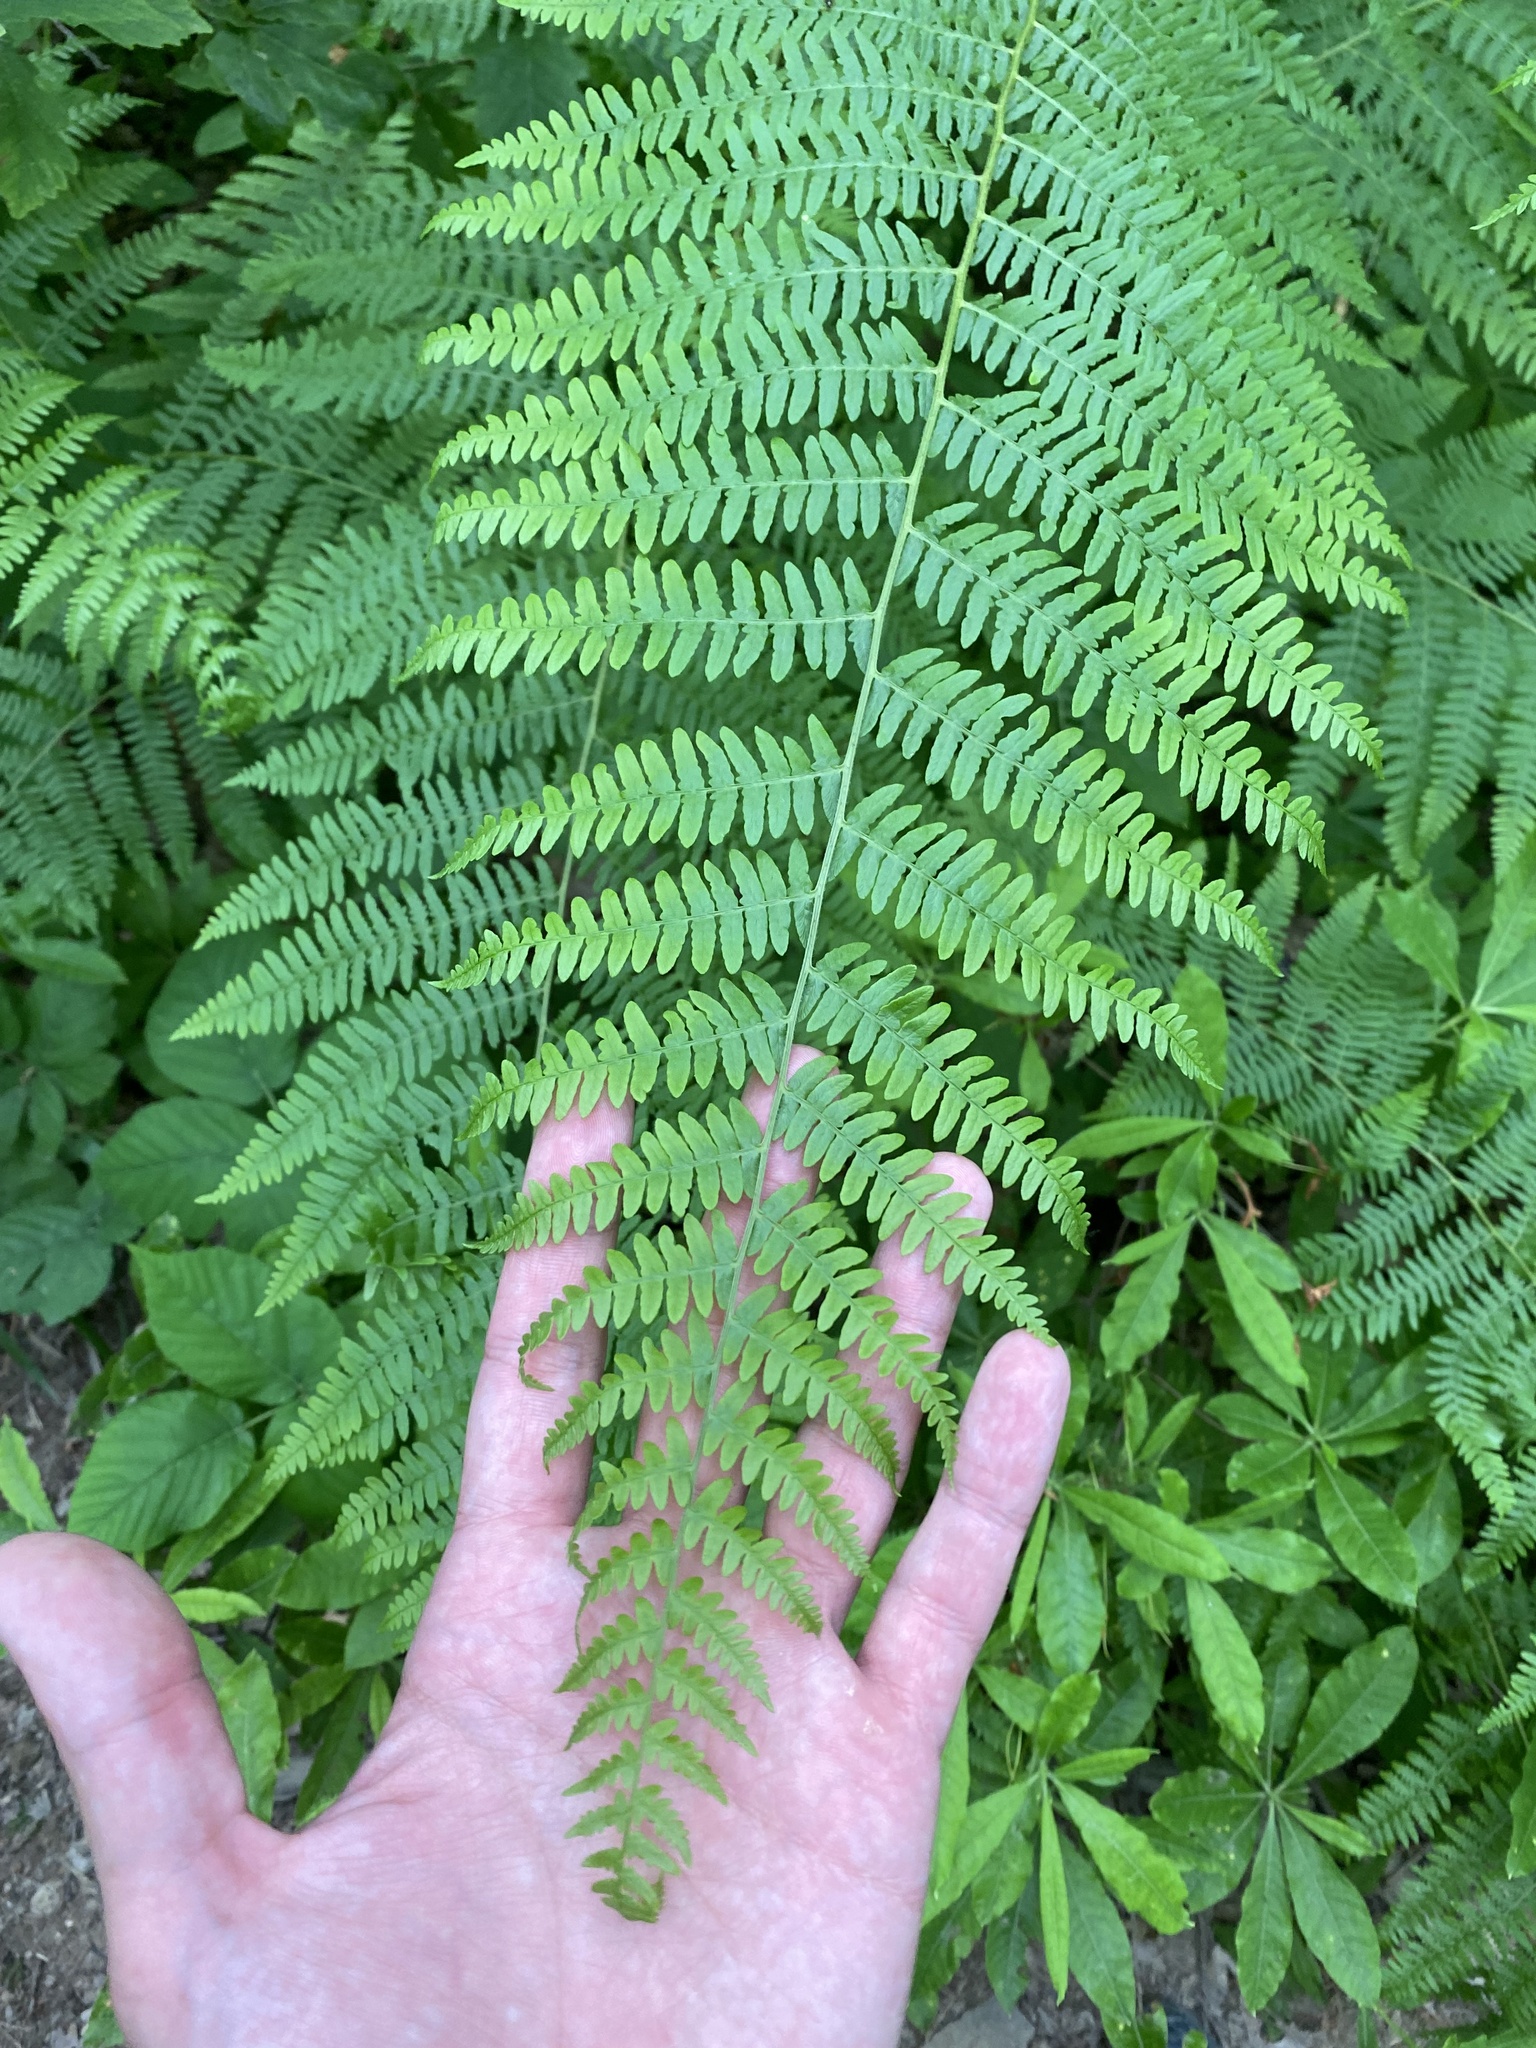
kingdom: Plantae
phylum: Tracheophyta
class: Polypodiopsida
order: Polypodiales
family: Dennstaedtiaceae
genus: Pteridium
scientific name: Pteridium tauricum
